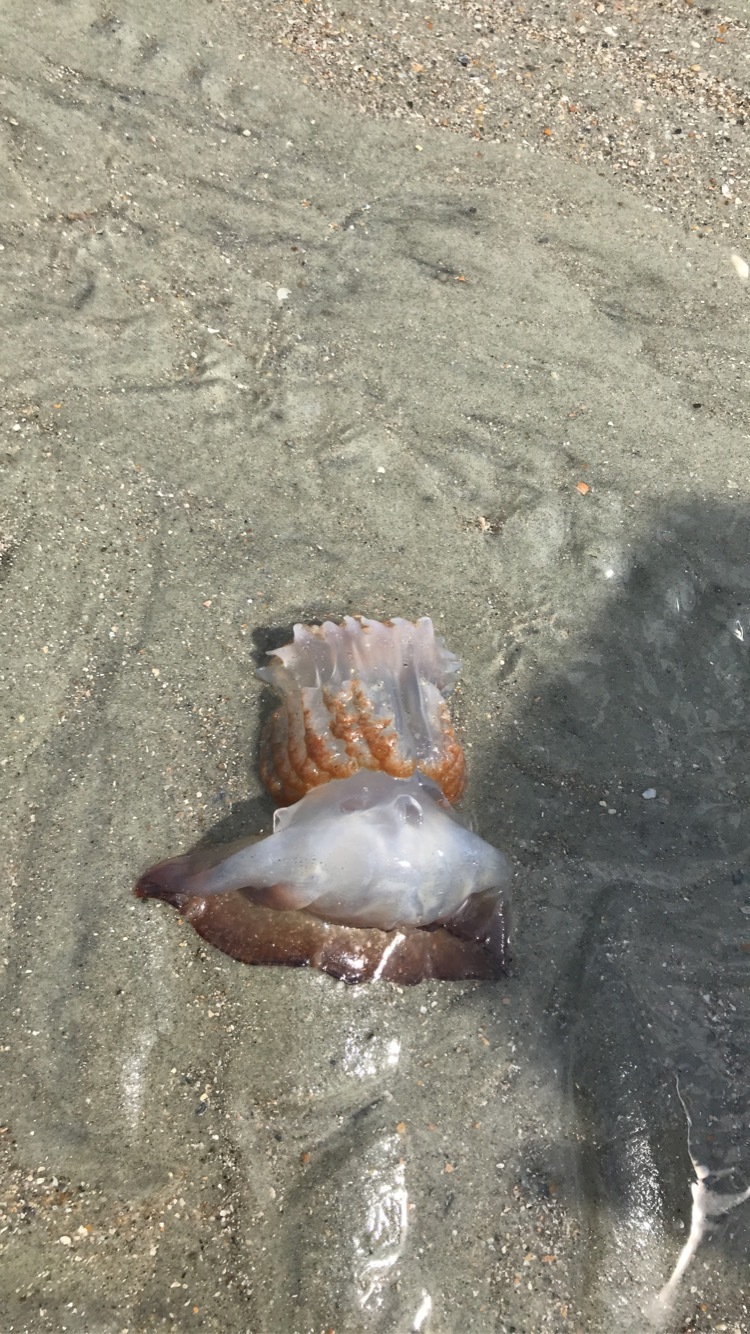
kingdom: Animalia
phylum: Cnidaria
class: Scyphozoa
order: Rhizostomeae
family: Stomolophidae
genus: Stomolophus
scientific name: Stomolophus meleagris
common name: Cabbagehead
